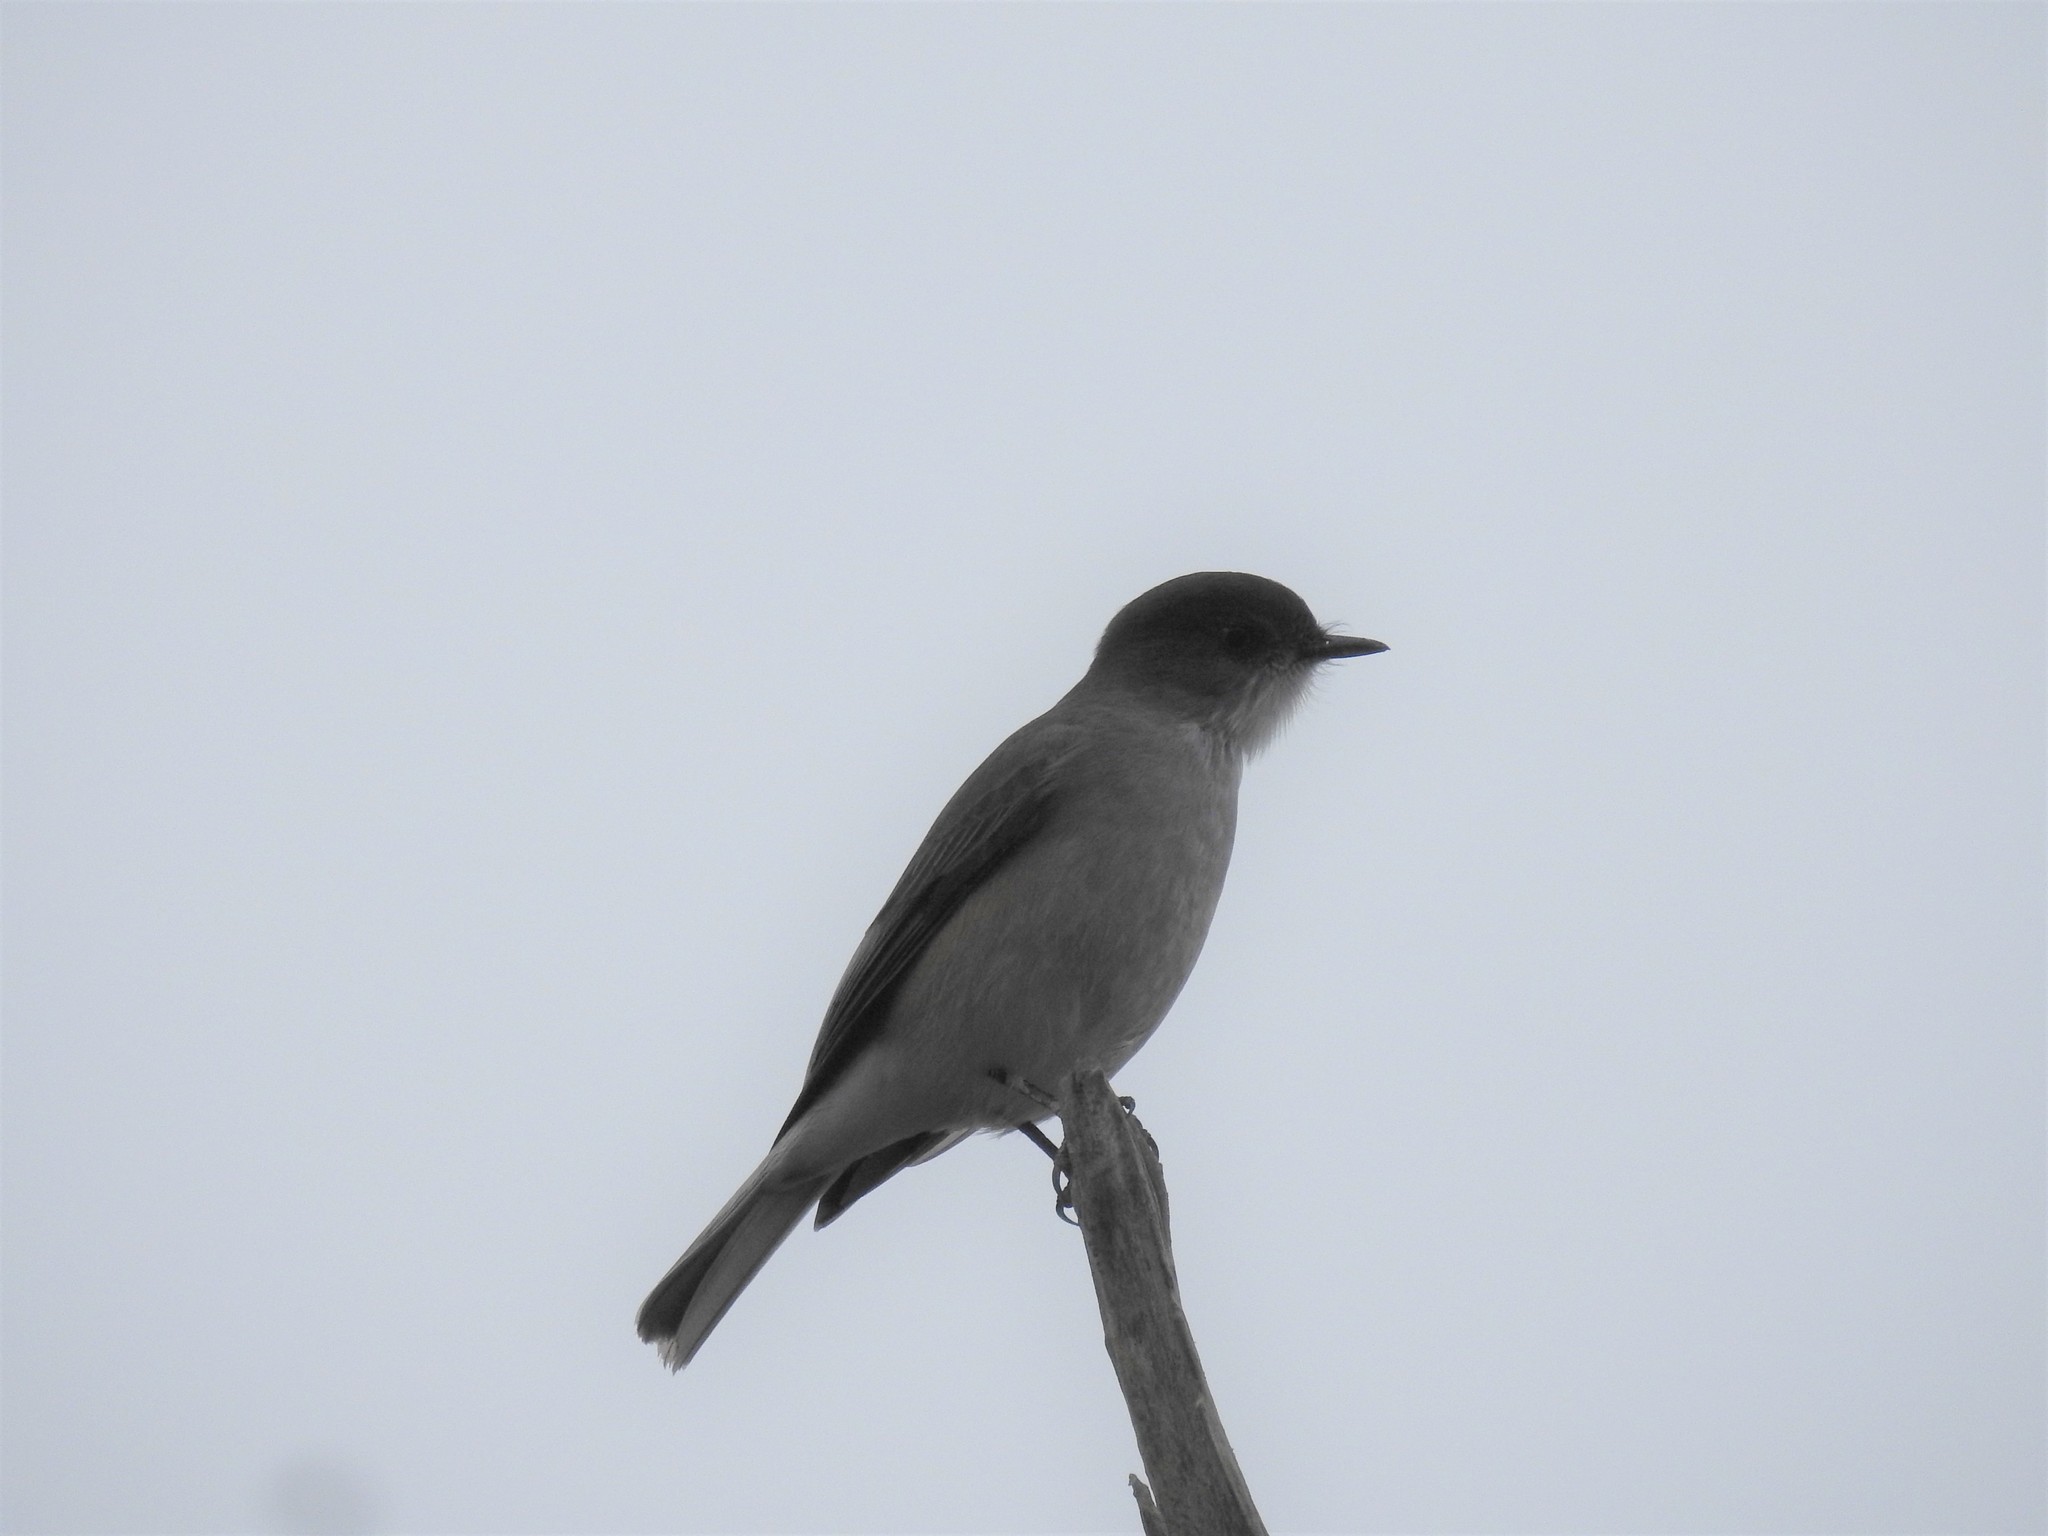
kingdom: Animalia
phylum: Chordata
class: Aves
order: Passeriformes
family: Tyrannidae
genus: Xolmis
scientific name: Xolmis pyrope
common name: Fire-eyed diucon
